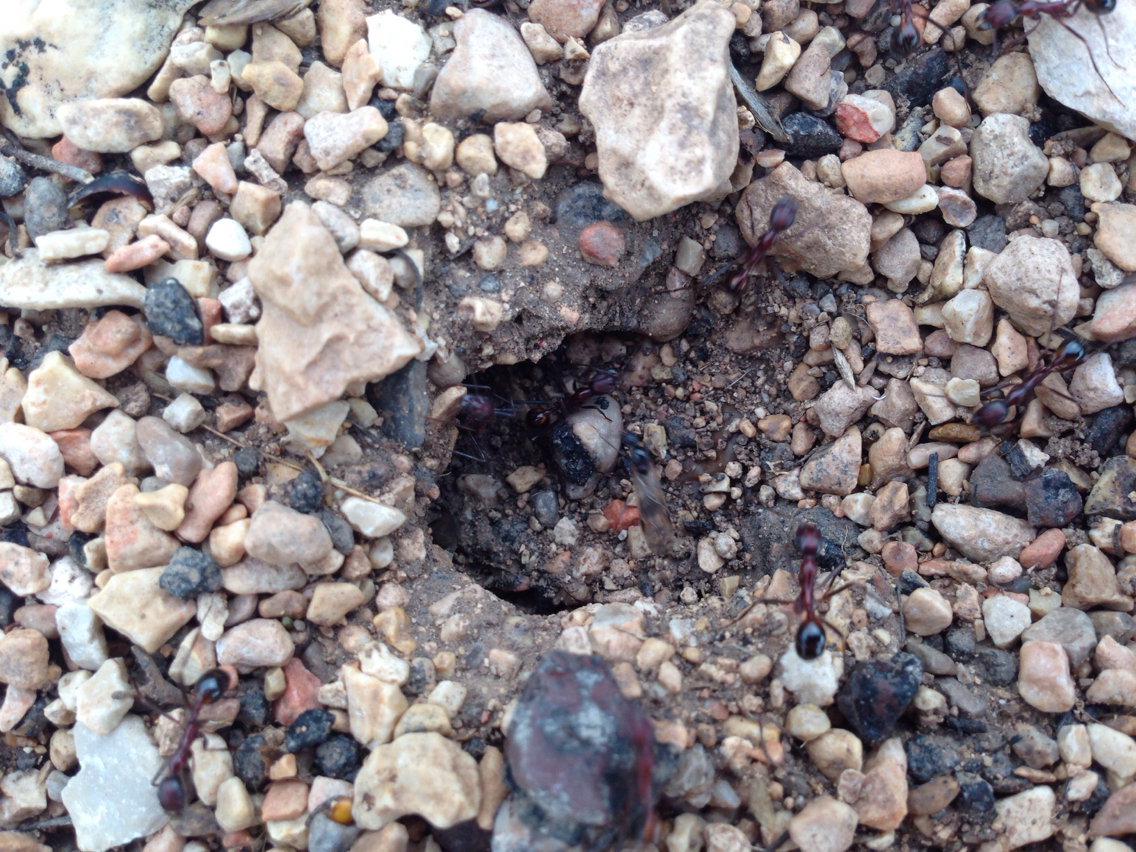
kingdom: Animalia
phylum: Arthropoda
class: Insecta
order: Hymenoptera
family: Formicidae
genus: Novomessor
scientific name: Novomessor cockerelli
